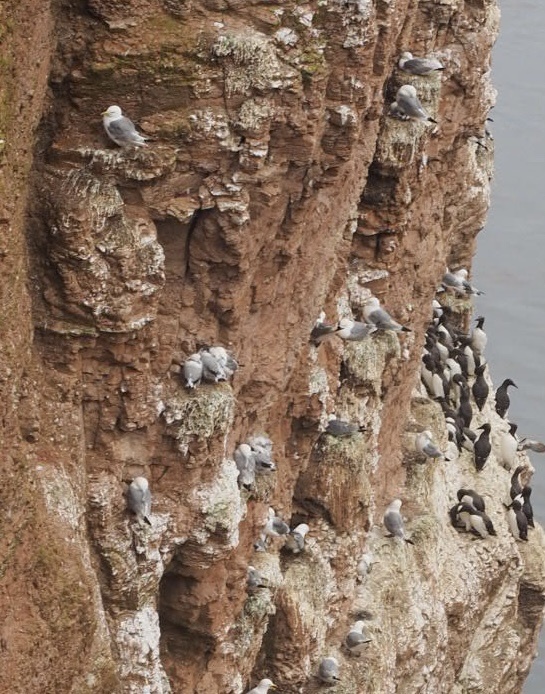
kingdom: Animalia
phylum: Chordata
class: Aves
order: Charadriiformes
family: Laridae
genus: Rissa
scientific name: Rissa tridactyla
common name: Black-legged kittiwake
